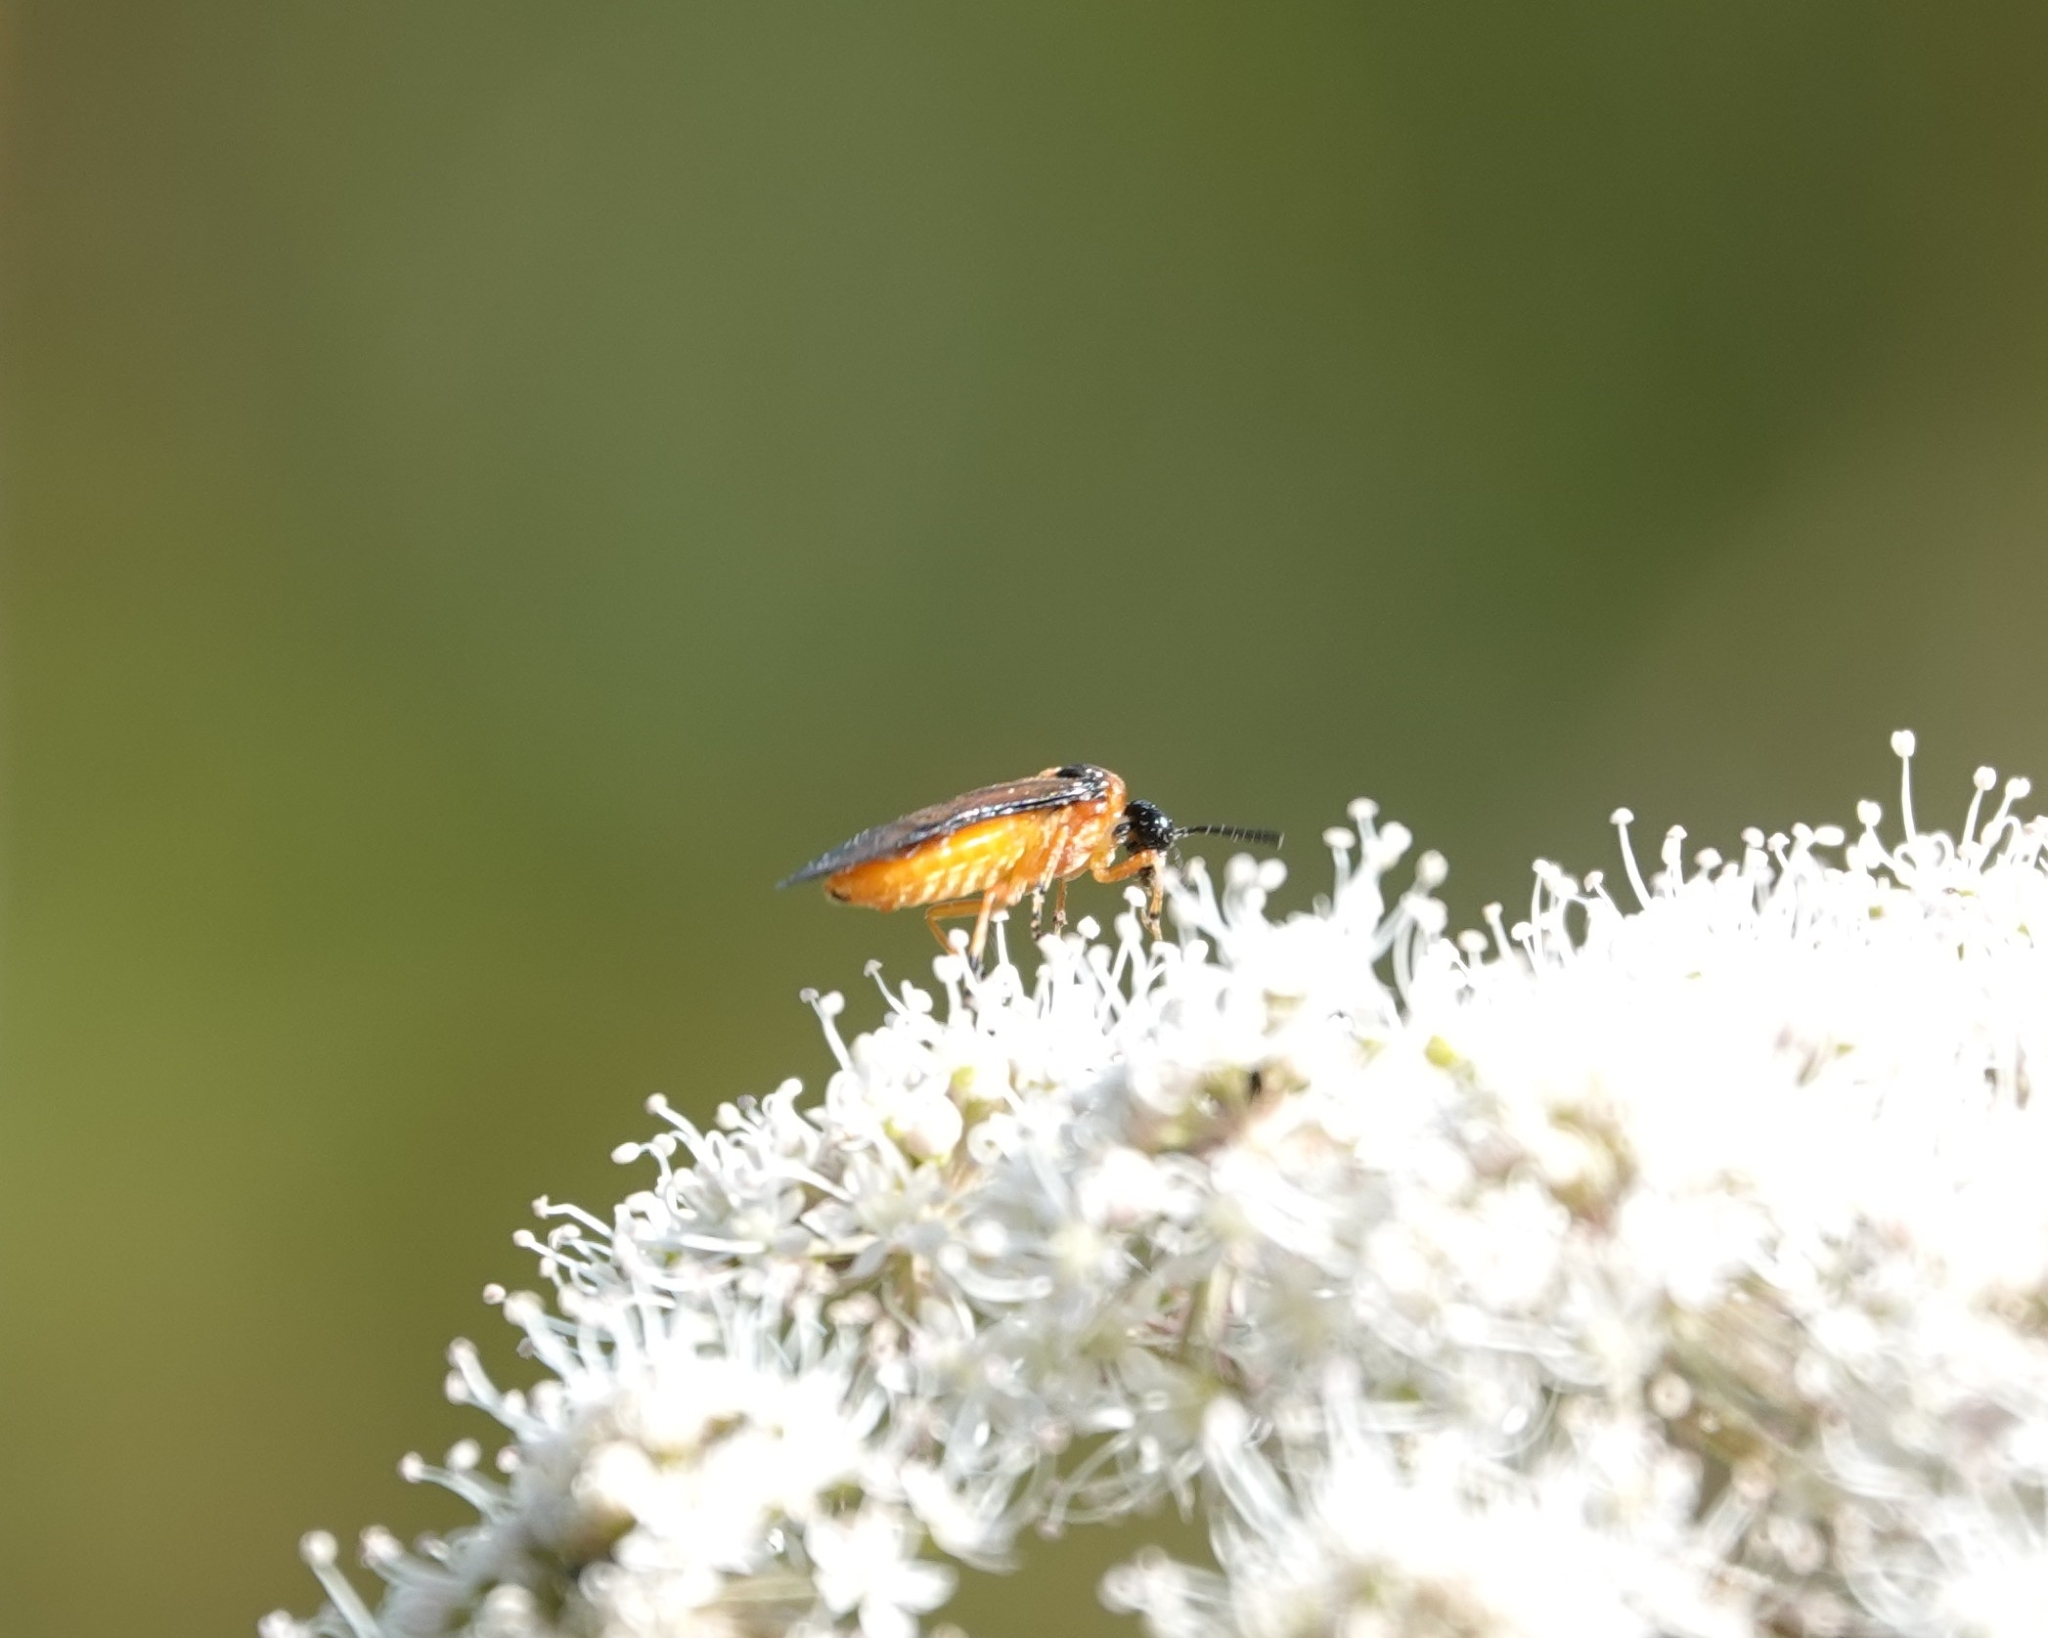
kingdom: Animalia
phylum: Arthropoda
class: Insecta
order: Hymenoptera
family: Tenthredinidae
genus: Athalia
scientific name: Athalia rosae
